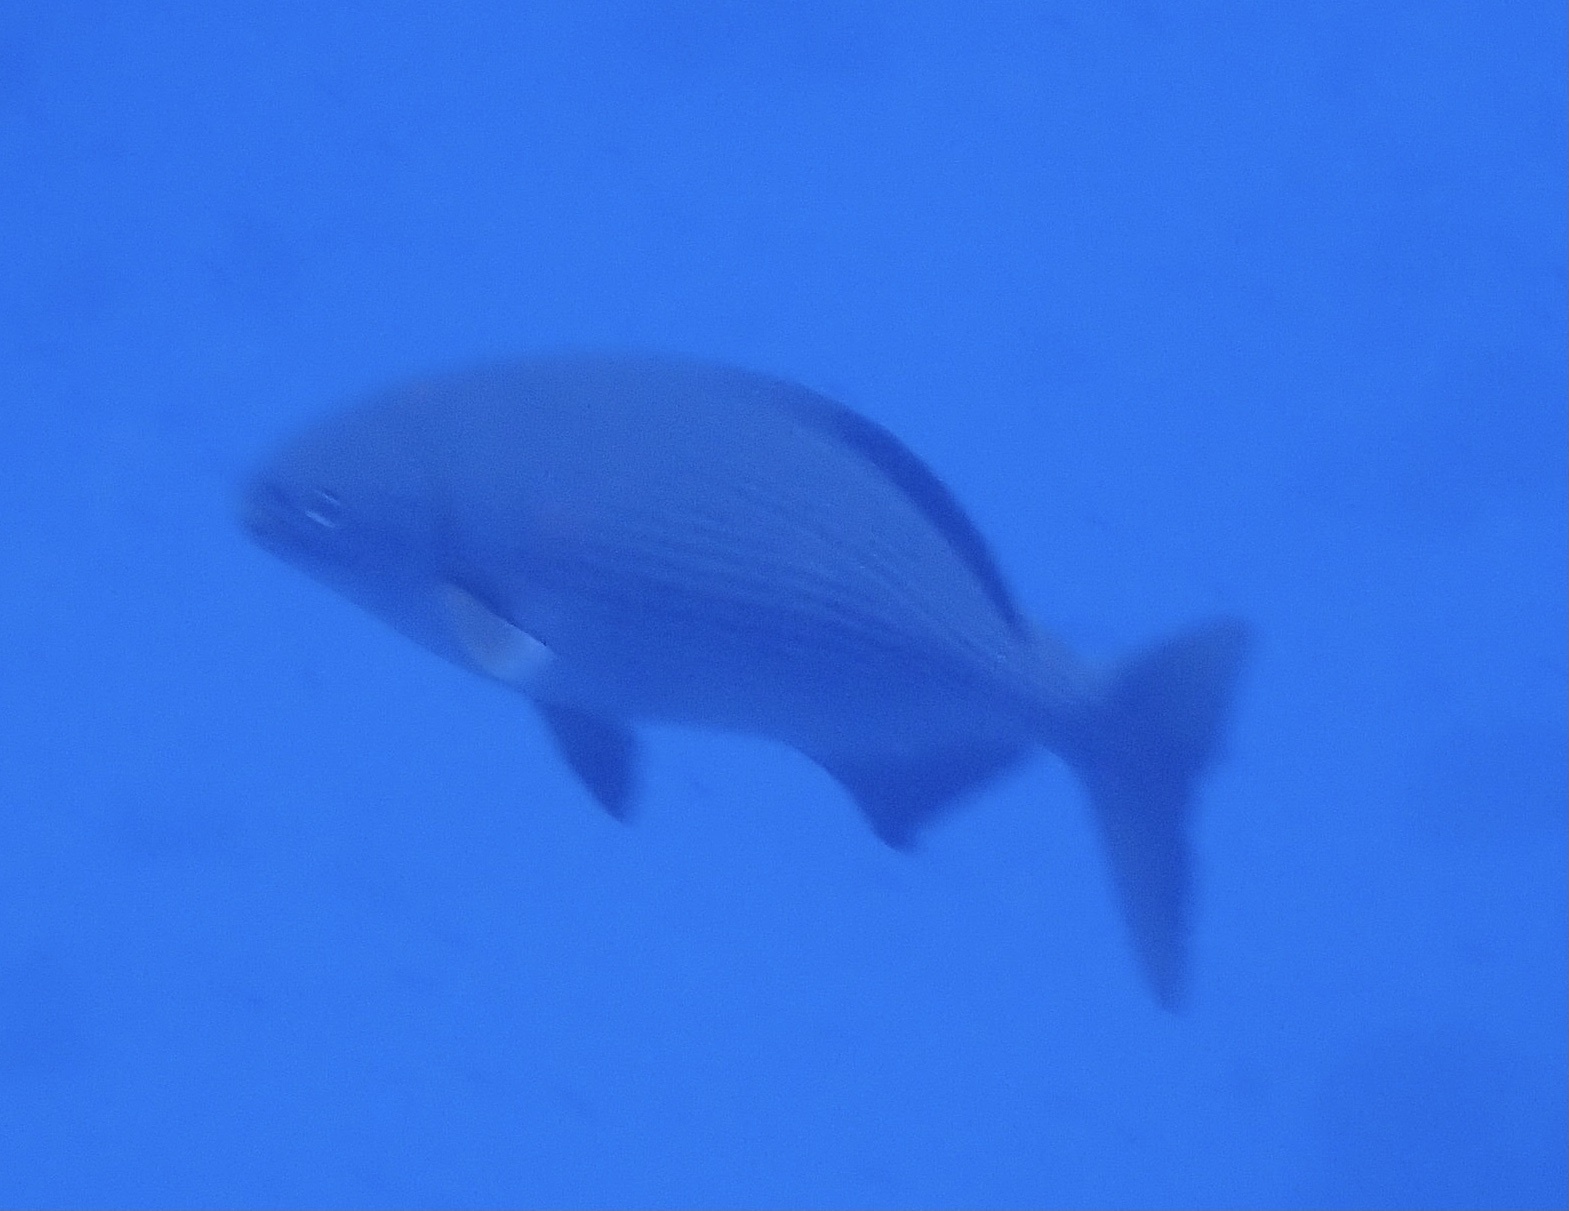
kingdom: Animalia
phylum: Chordata
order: Perciformes
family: Kyphosidae
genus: Kyphosus
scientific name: Kyphosus vaigiensis
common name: Brassy chub
